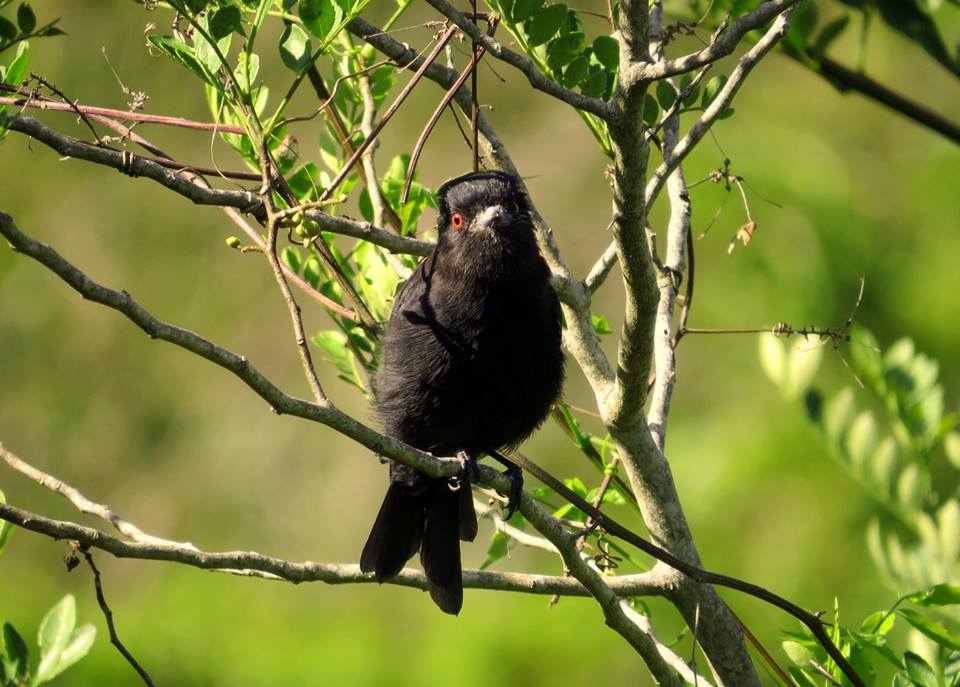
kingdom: Animalia
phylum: Chordata
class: Aves
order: Passeriformes
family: Tyrannidae
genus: Knipolegus
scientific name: Knipolegus cyanirostris
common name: Blue-billed black tyrant
